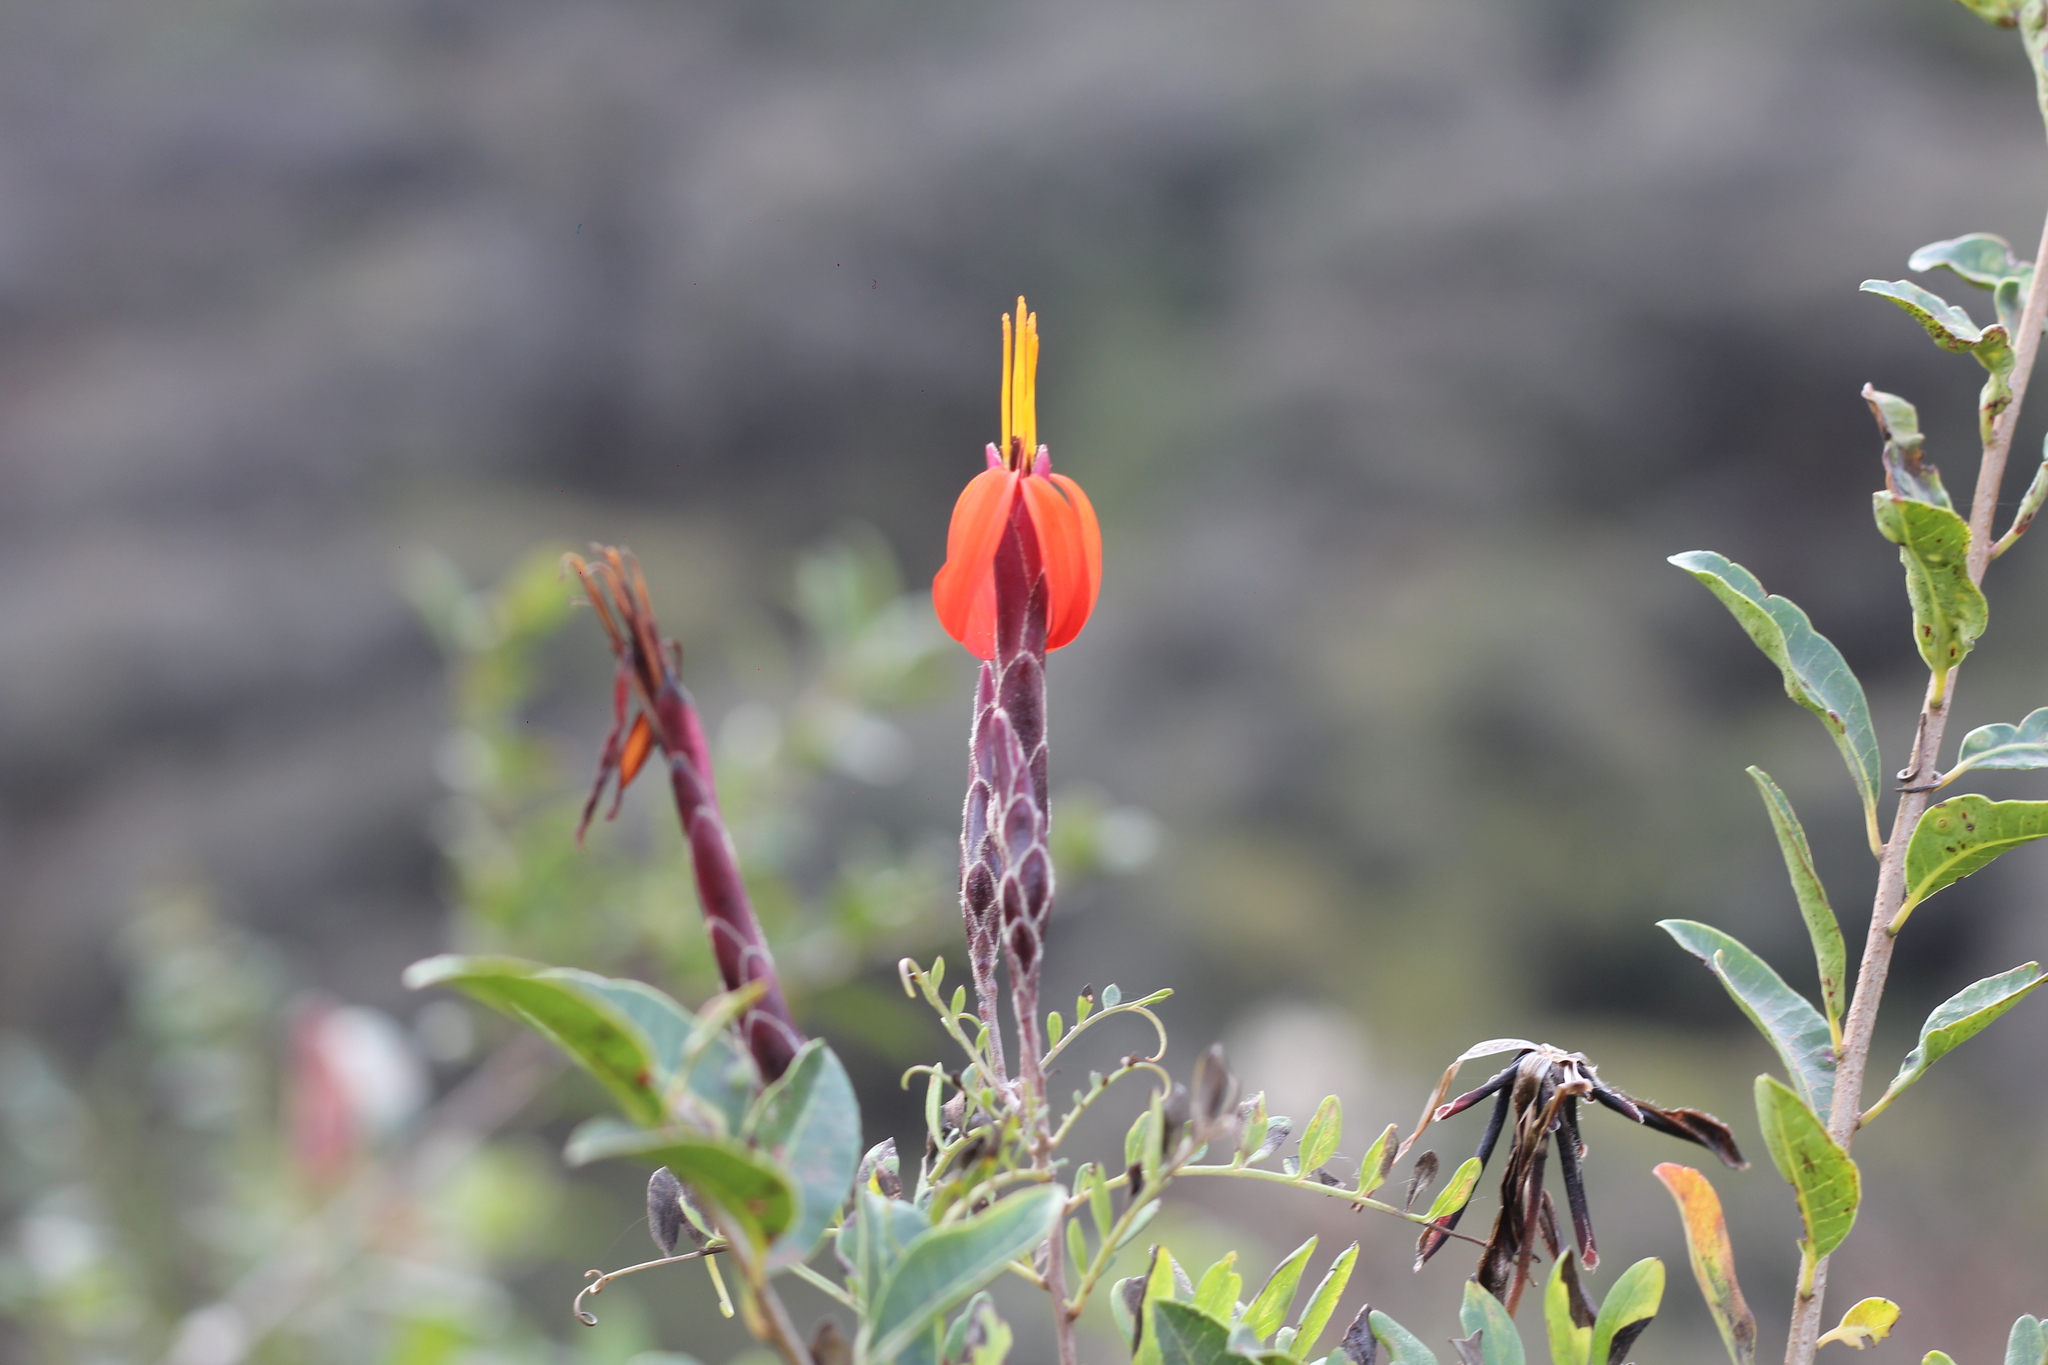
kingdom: Plantae
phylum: Tracheophyta
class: Magnoliopsida
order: Asterales
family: Asteraceae
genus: Mutisia
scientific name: Mutisia acuminata
